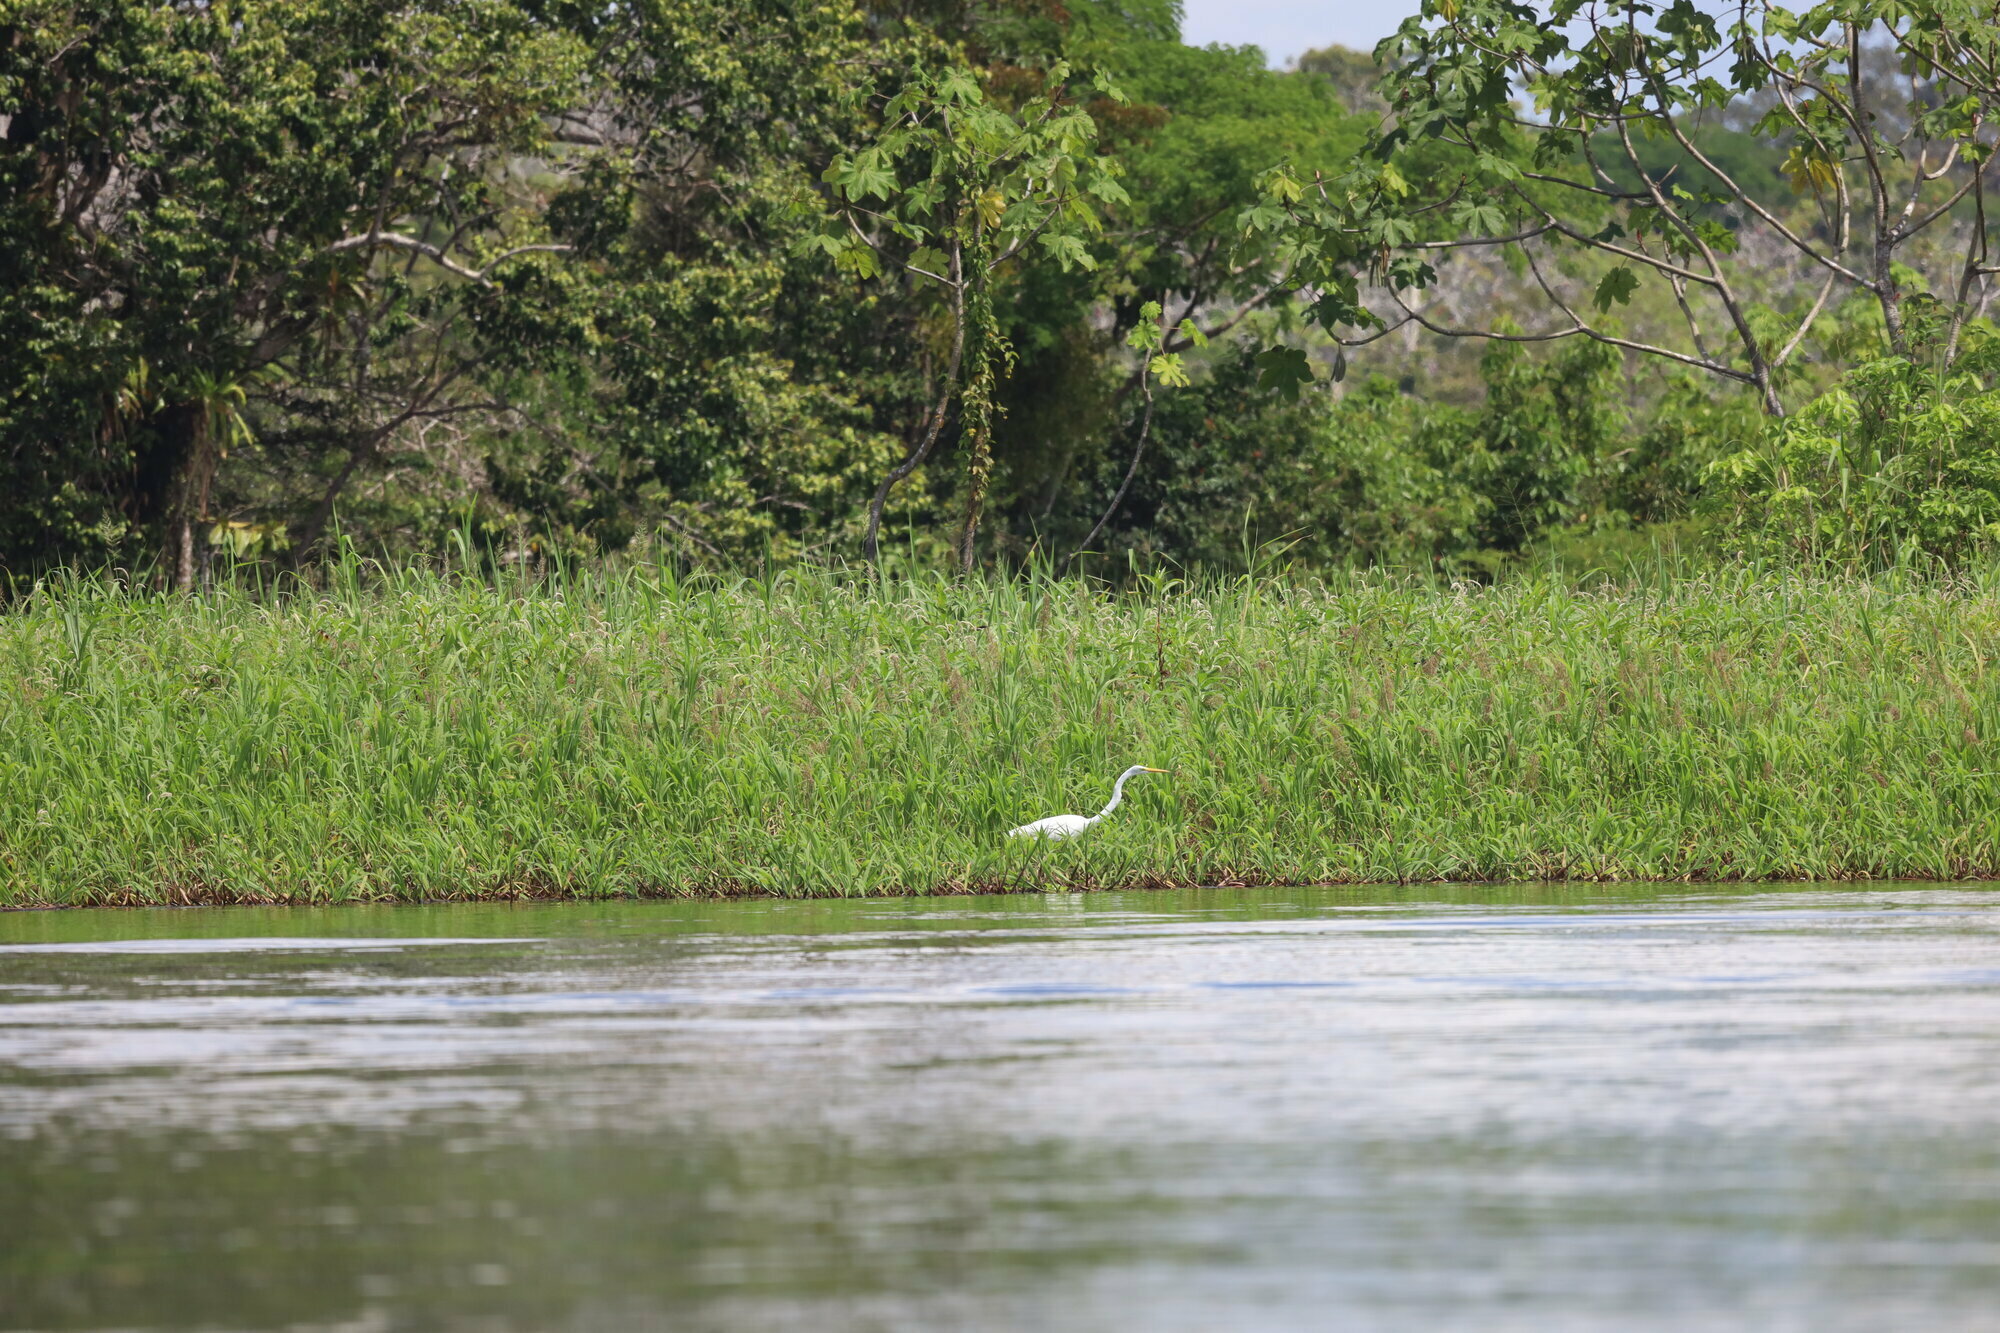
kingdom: Animalia
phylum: Chordata
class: Aves
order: Pelecaniformes
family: Ardeidae
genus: Ardea
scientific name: Ardea alba
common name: Great egret
